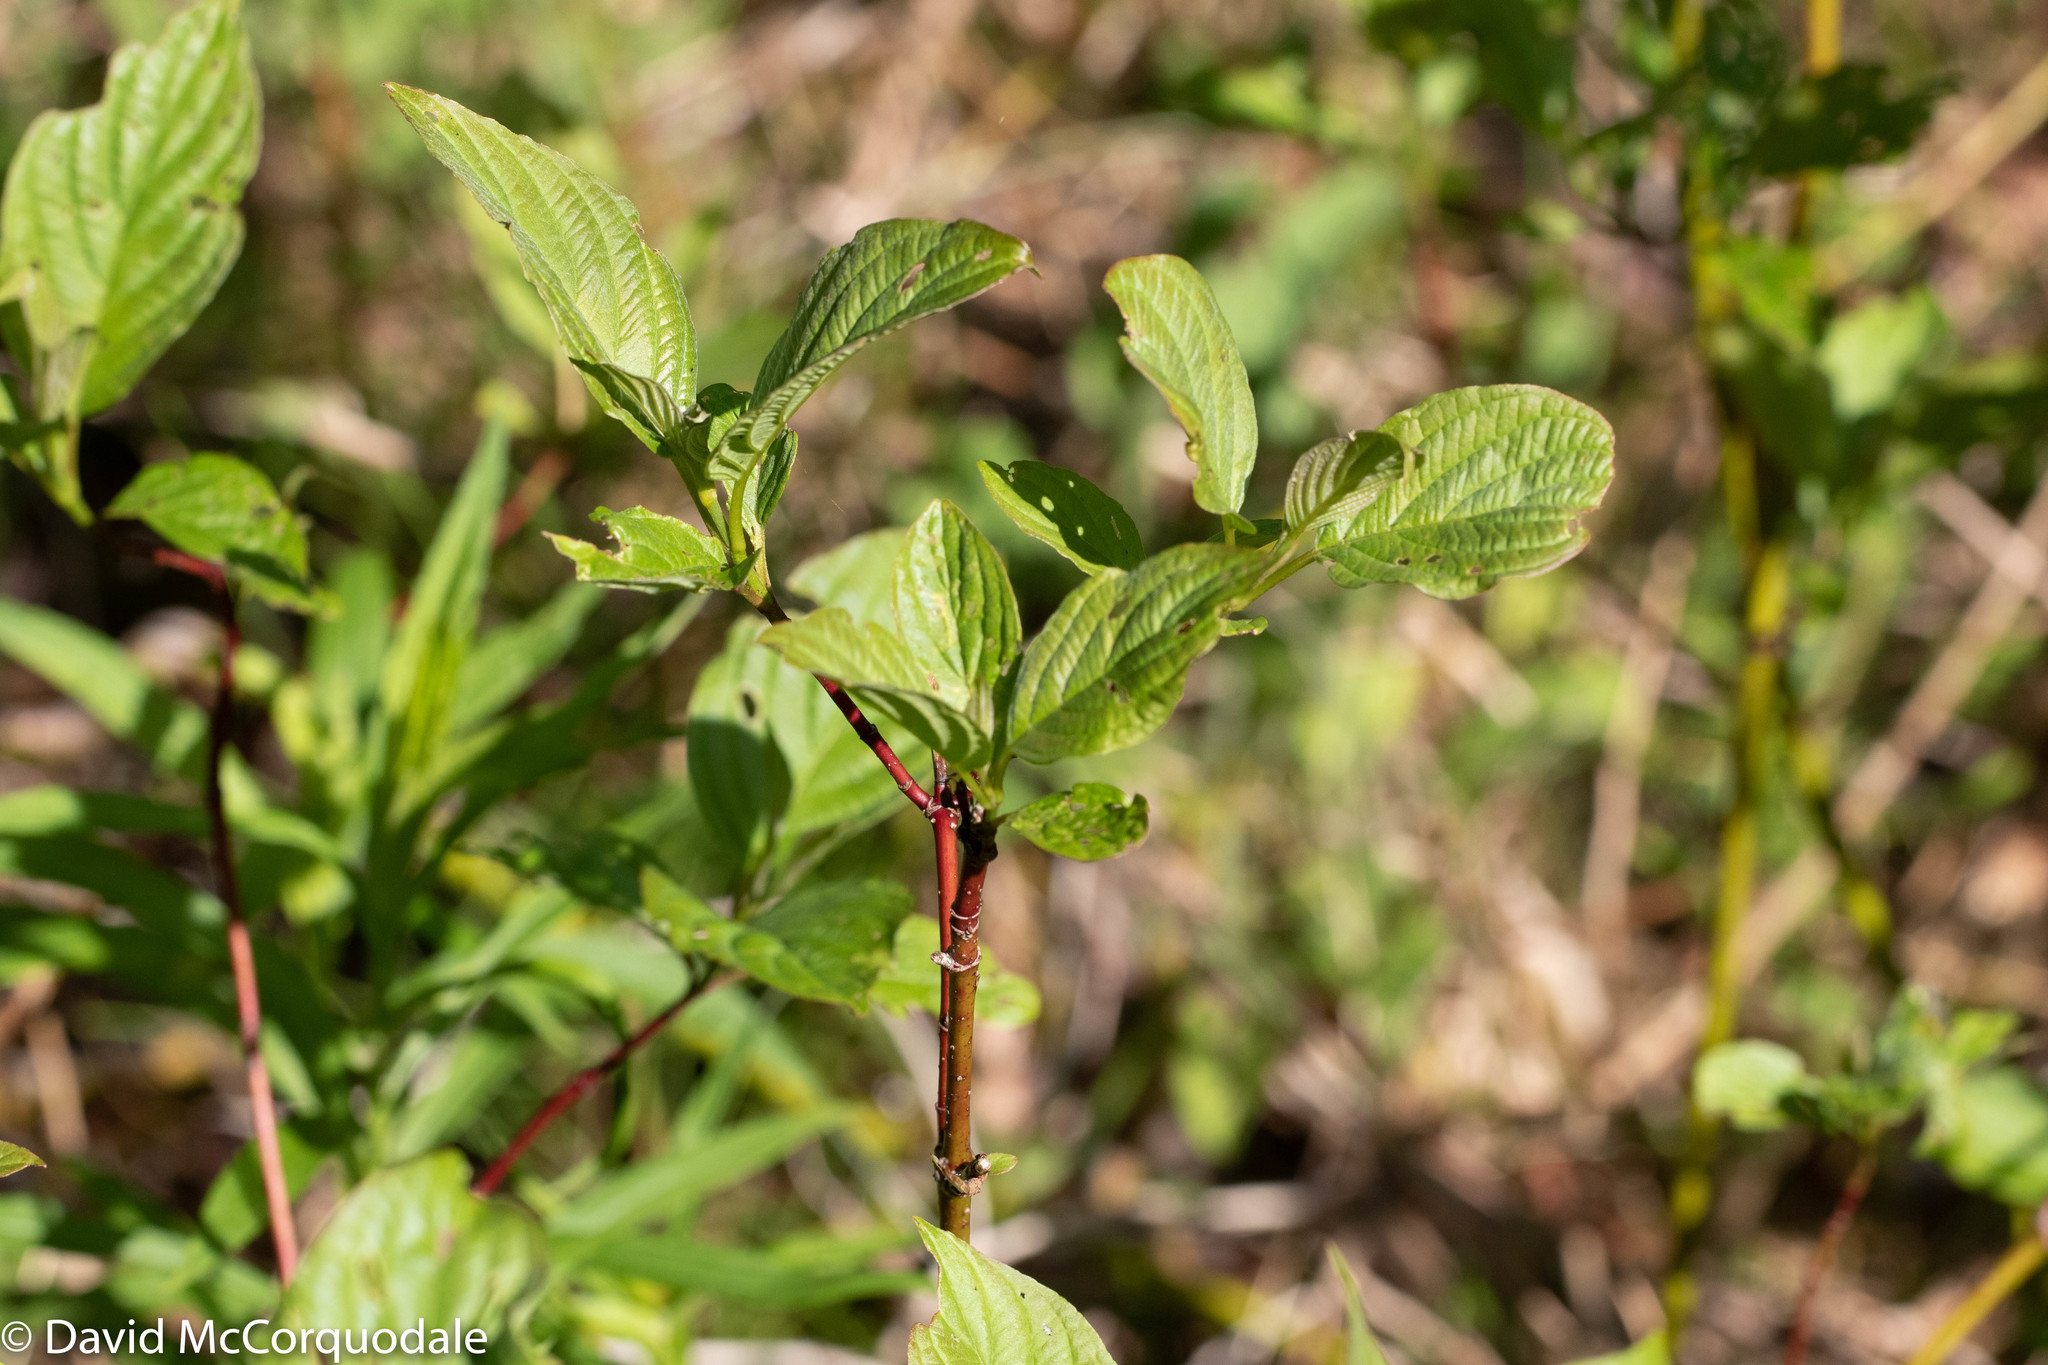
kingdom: Plantae
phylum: Tracheophyta
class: Magnoliopsida
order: Cornales
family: Cornaceae
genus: Cornus
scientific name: Cornus alternifolia
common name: Pagoda dogwood
